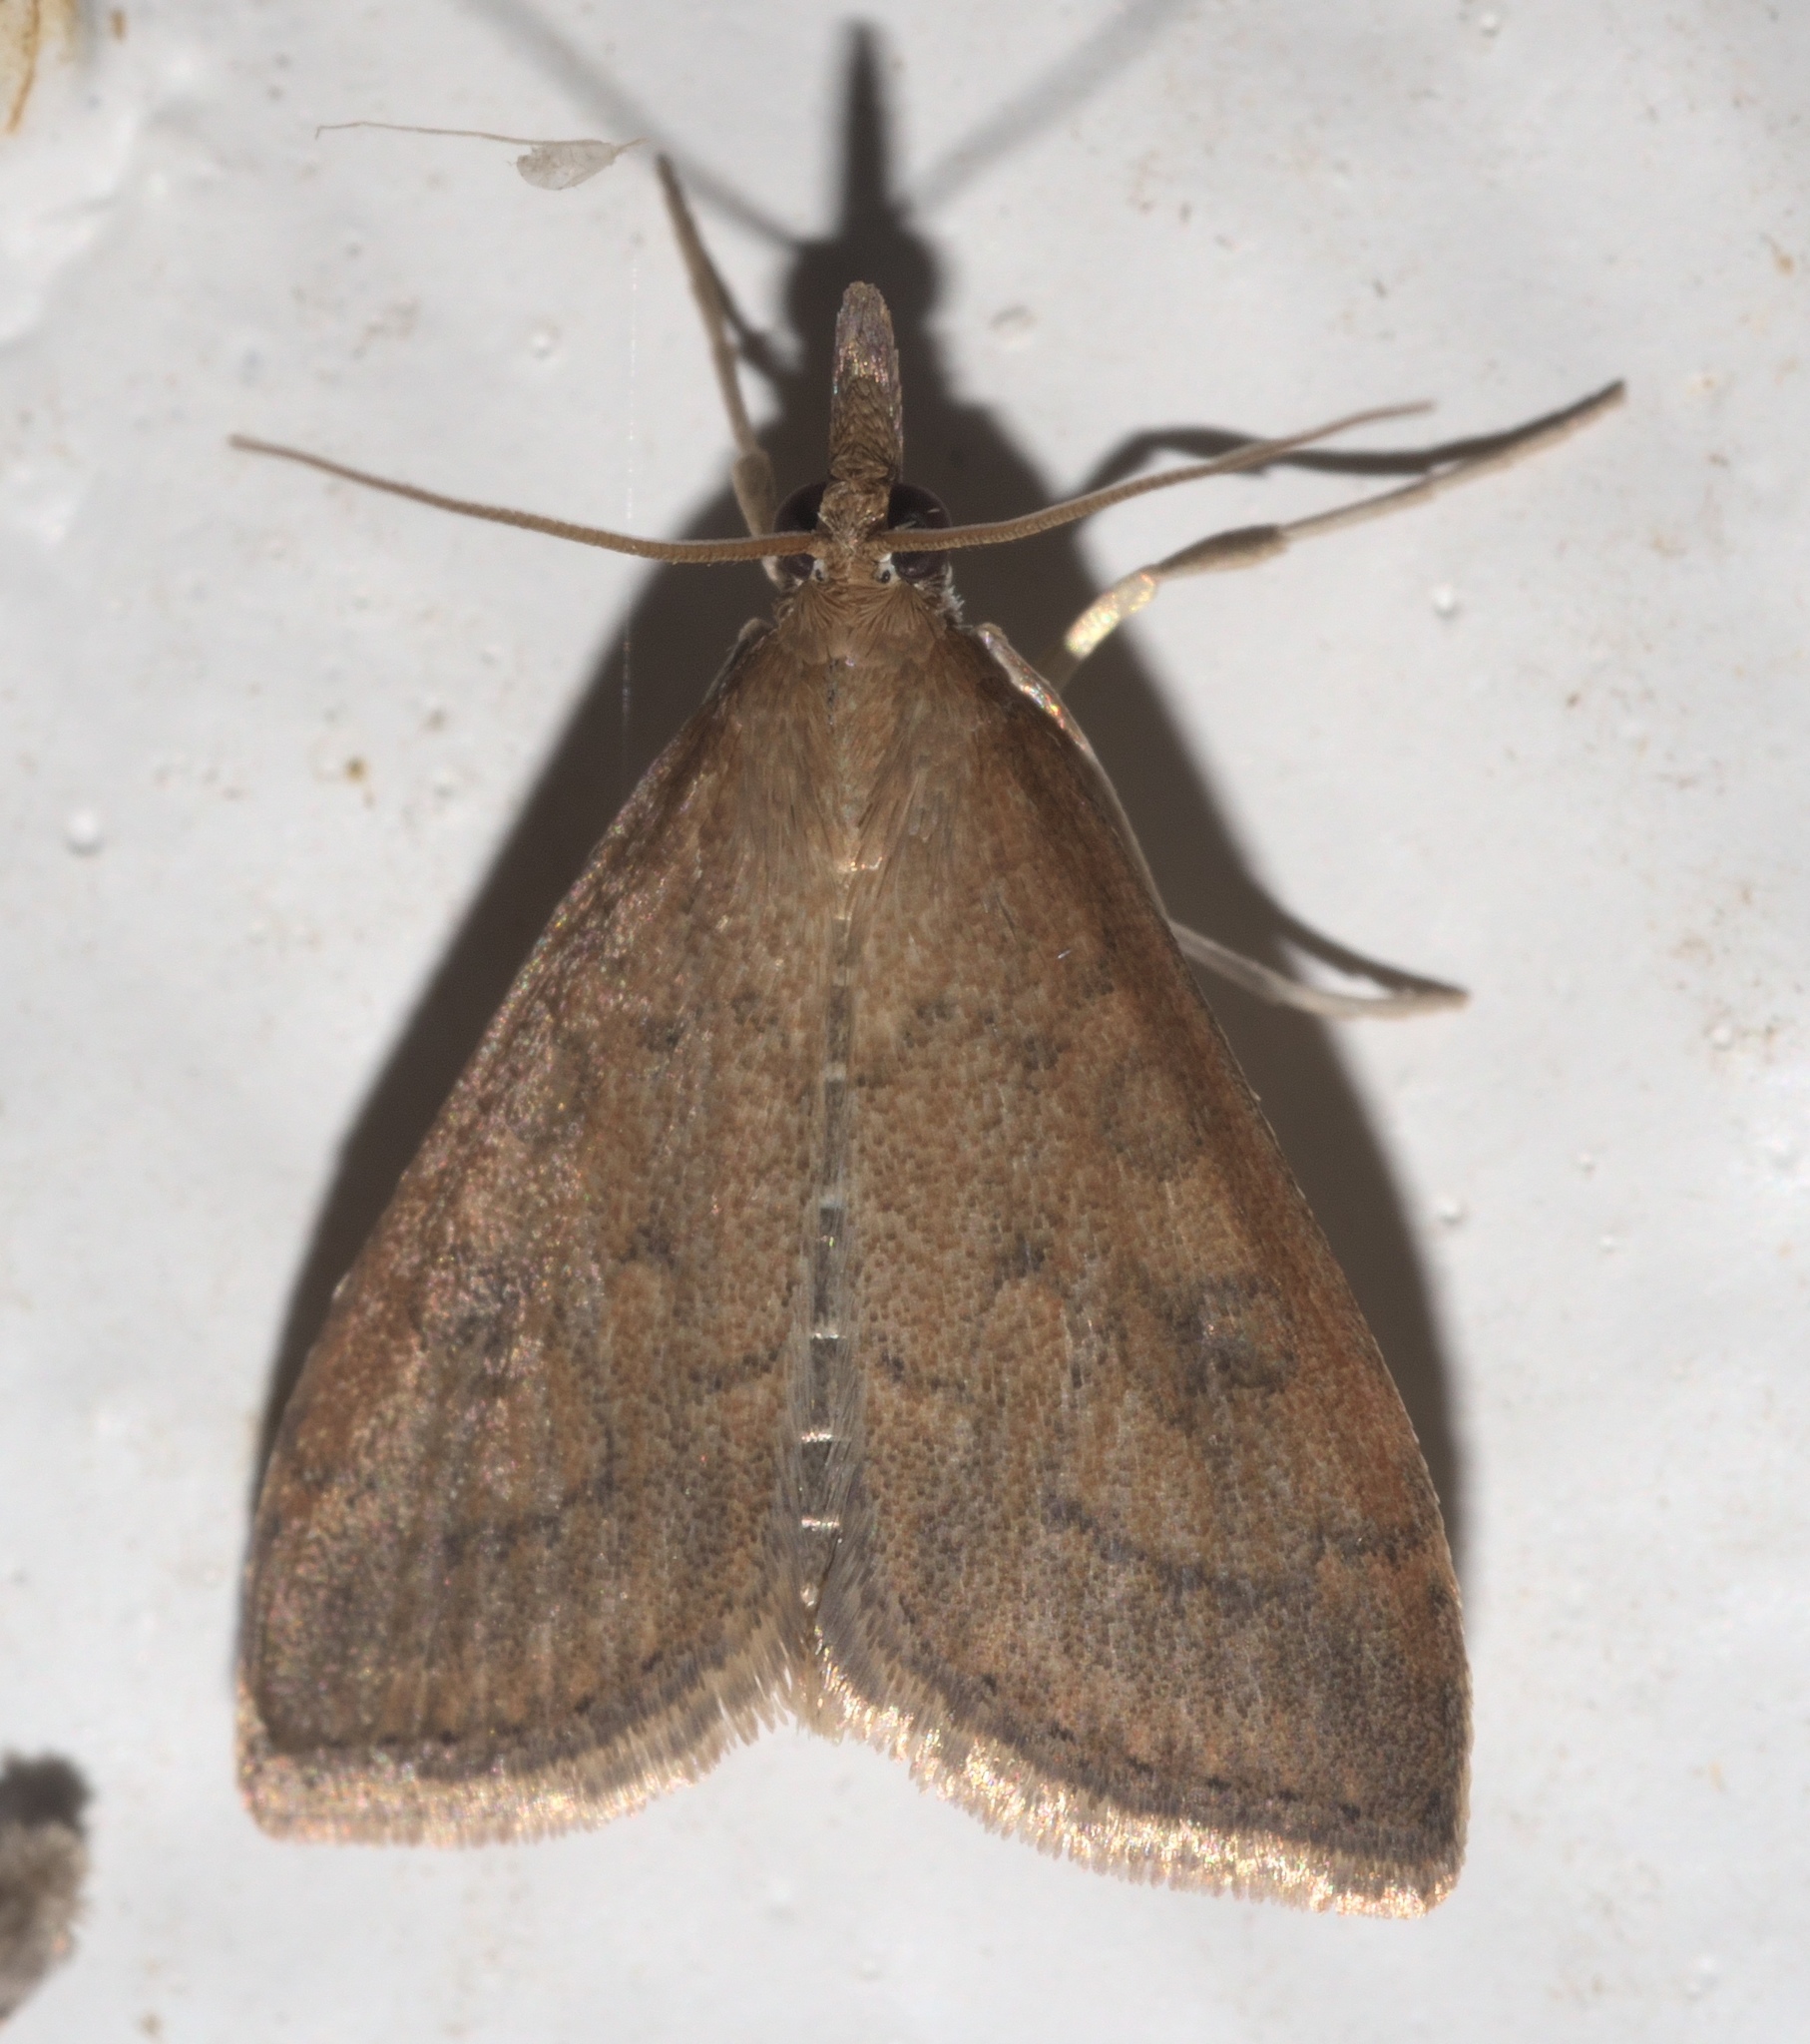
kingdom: Animalia
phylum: Arthropoda
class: Insecta
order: Lepidoptera
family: Crambidae
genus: Udea
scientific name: Udea rubigalis
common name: Celery leaftier moth
